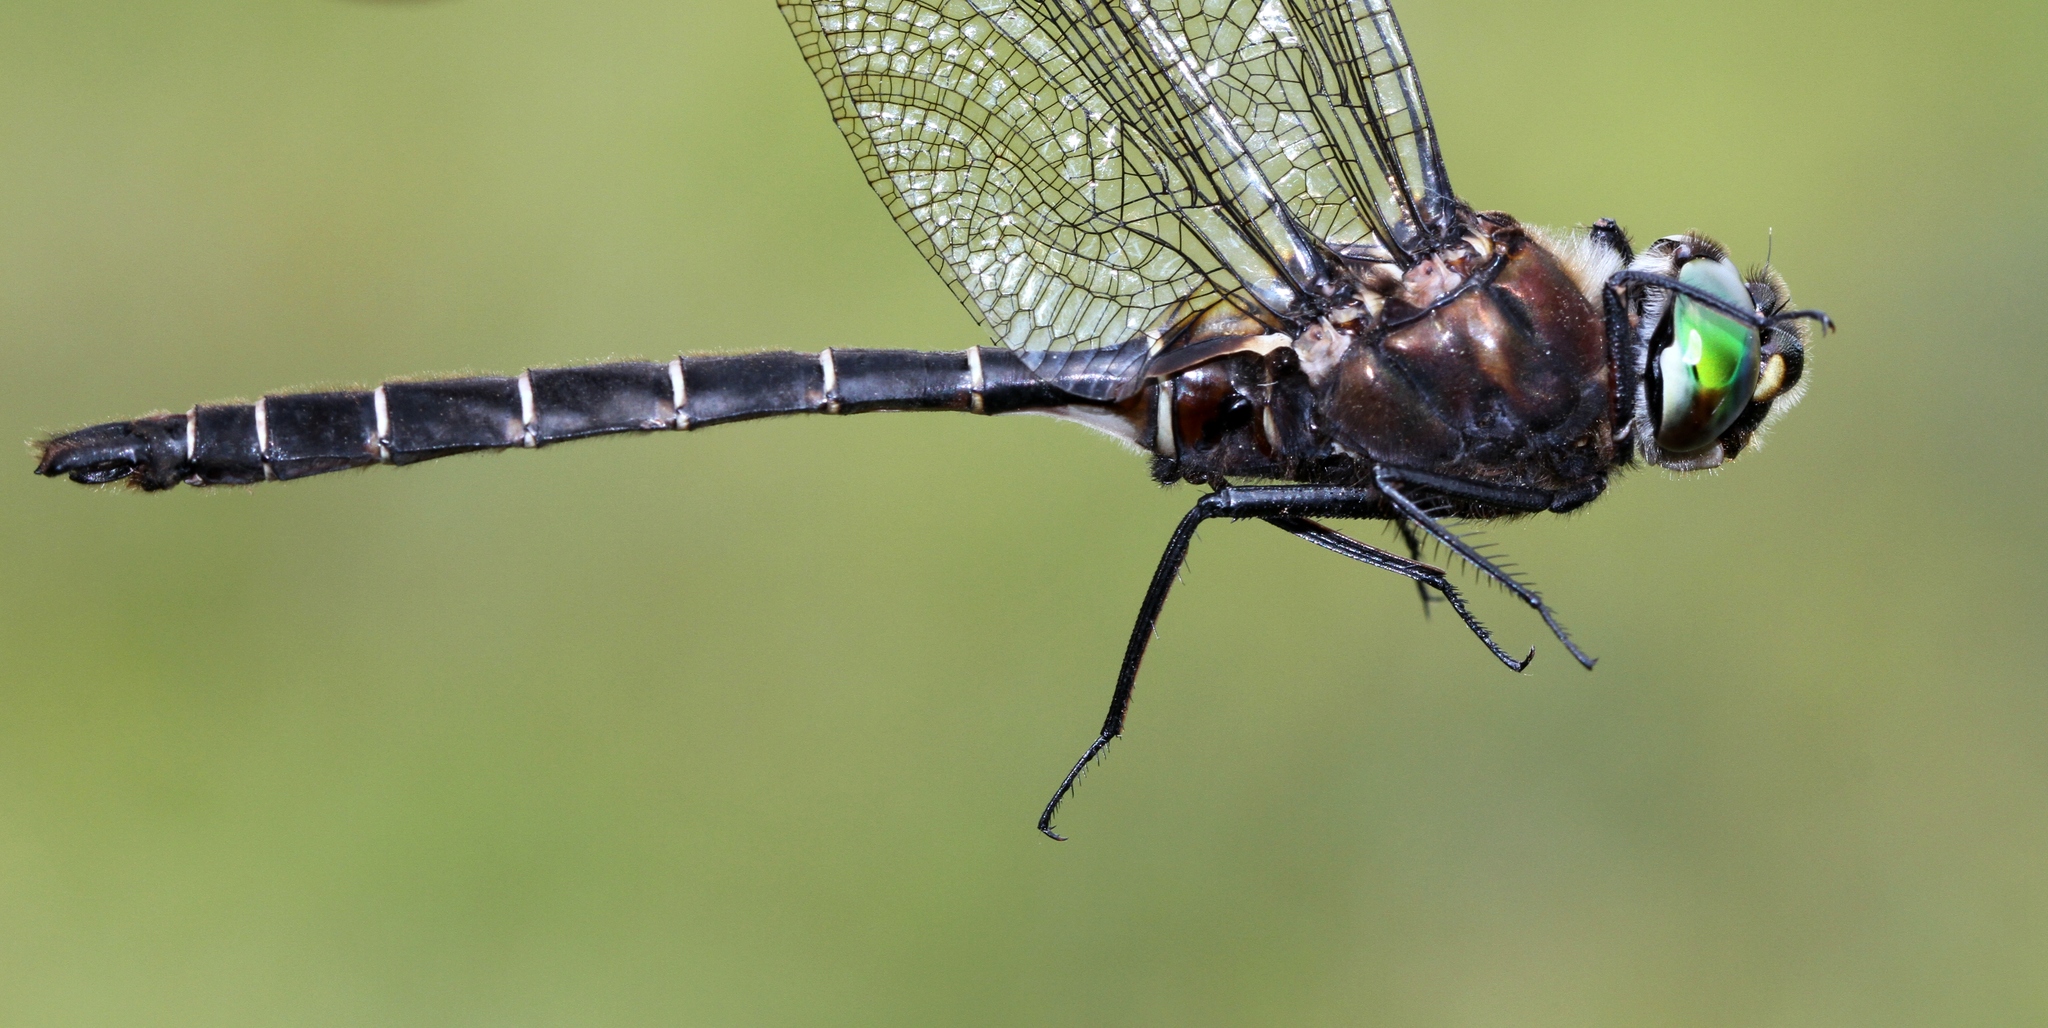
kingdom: Animalia
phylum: Arthropoda
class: Insecta
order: Odonata
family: Corduliidae
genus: Somatochlora
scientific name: Somatochlora cingulata
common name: Lake emerald
